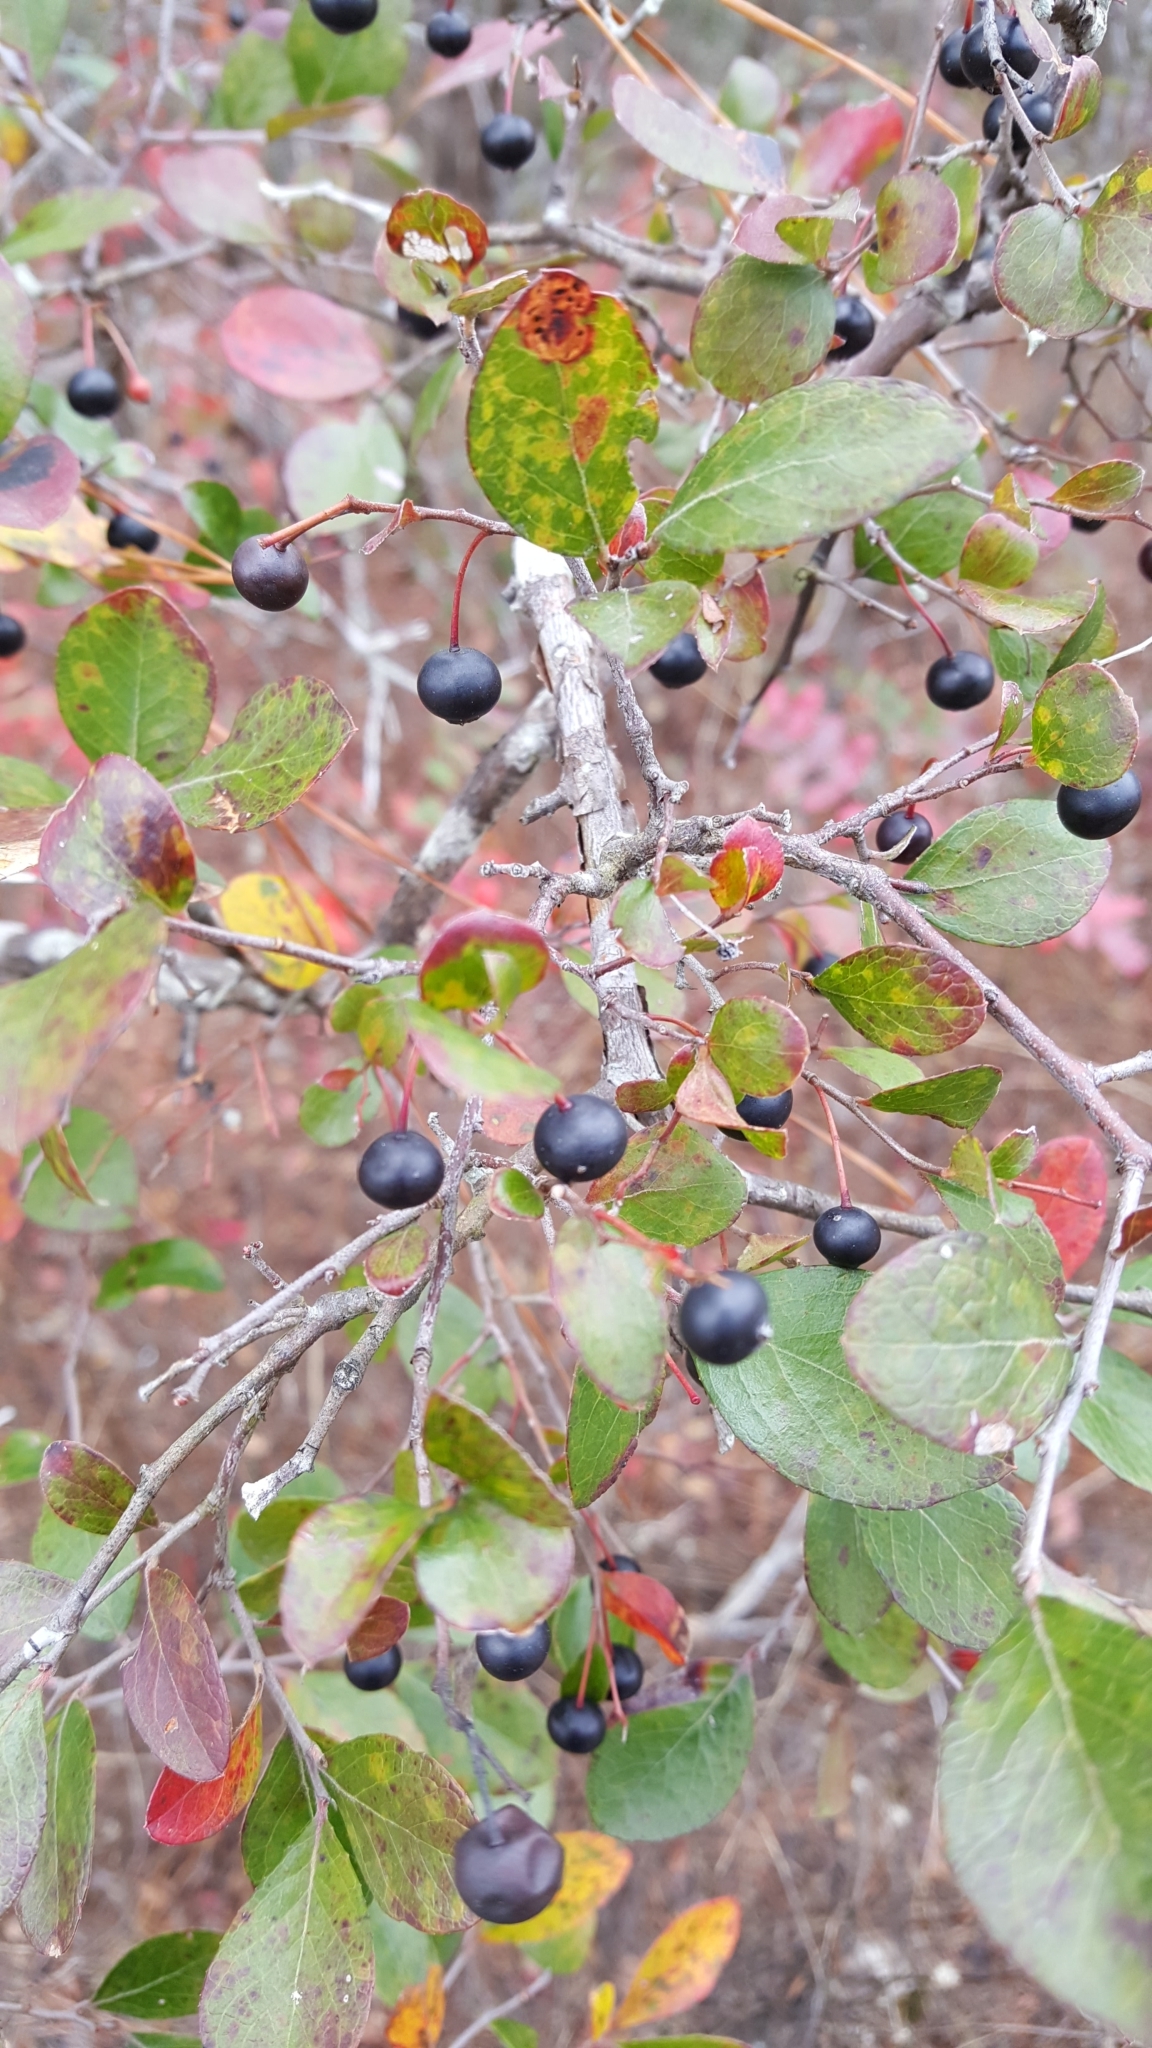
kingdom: Plantae
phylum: Tracheophyta
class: Magnoliopsida
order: Ericales
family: Ericaceae
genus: Vaccinium
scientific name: Vaccinium arboreum
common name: Farkleberry
